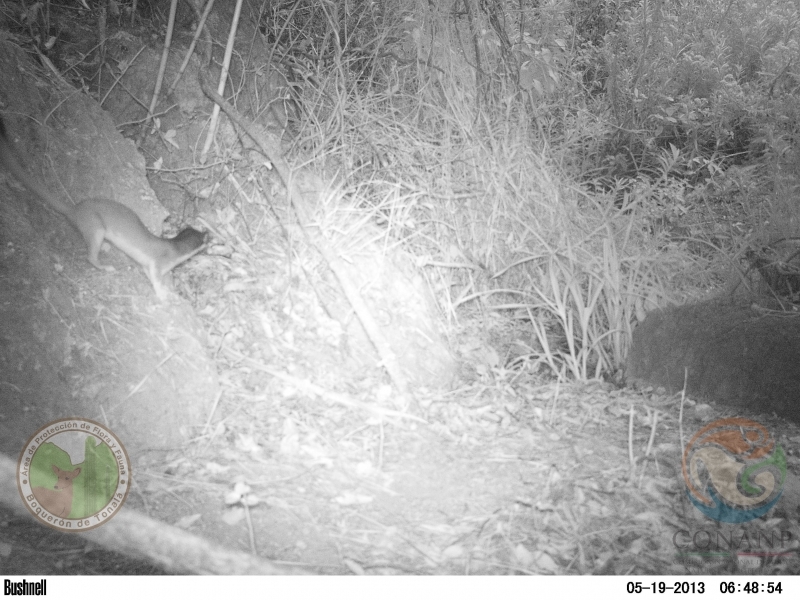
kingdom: Animalia
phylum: Chordata
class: Mammalia
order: Carnivora
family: Mustelidae
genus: Mustela
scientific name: Mustela
